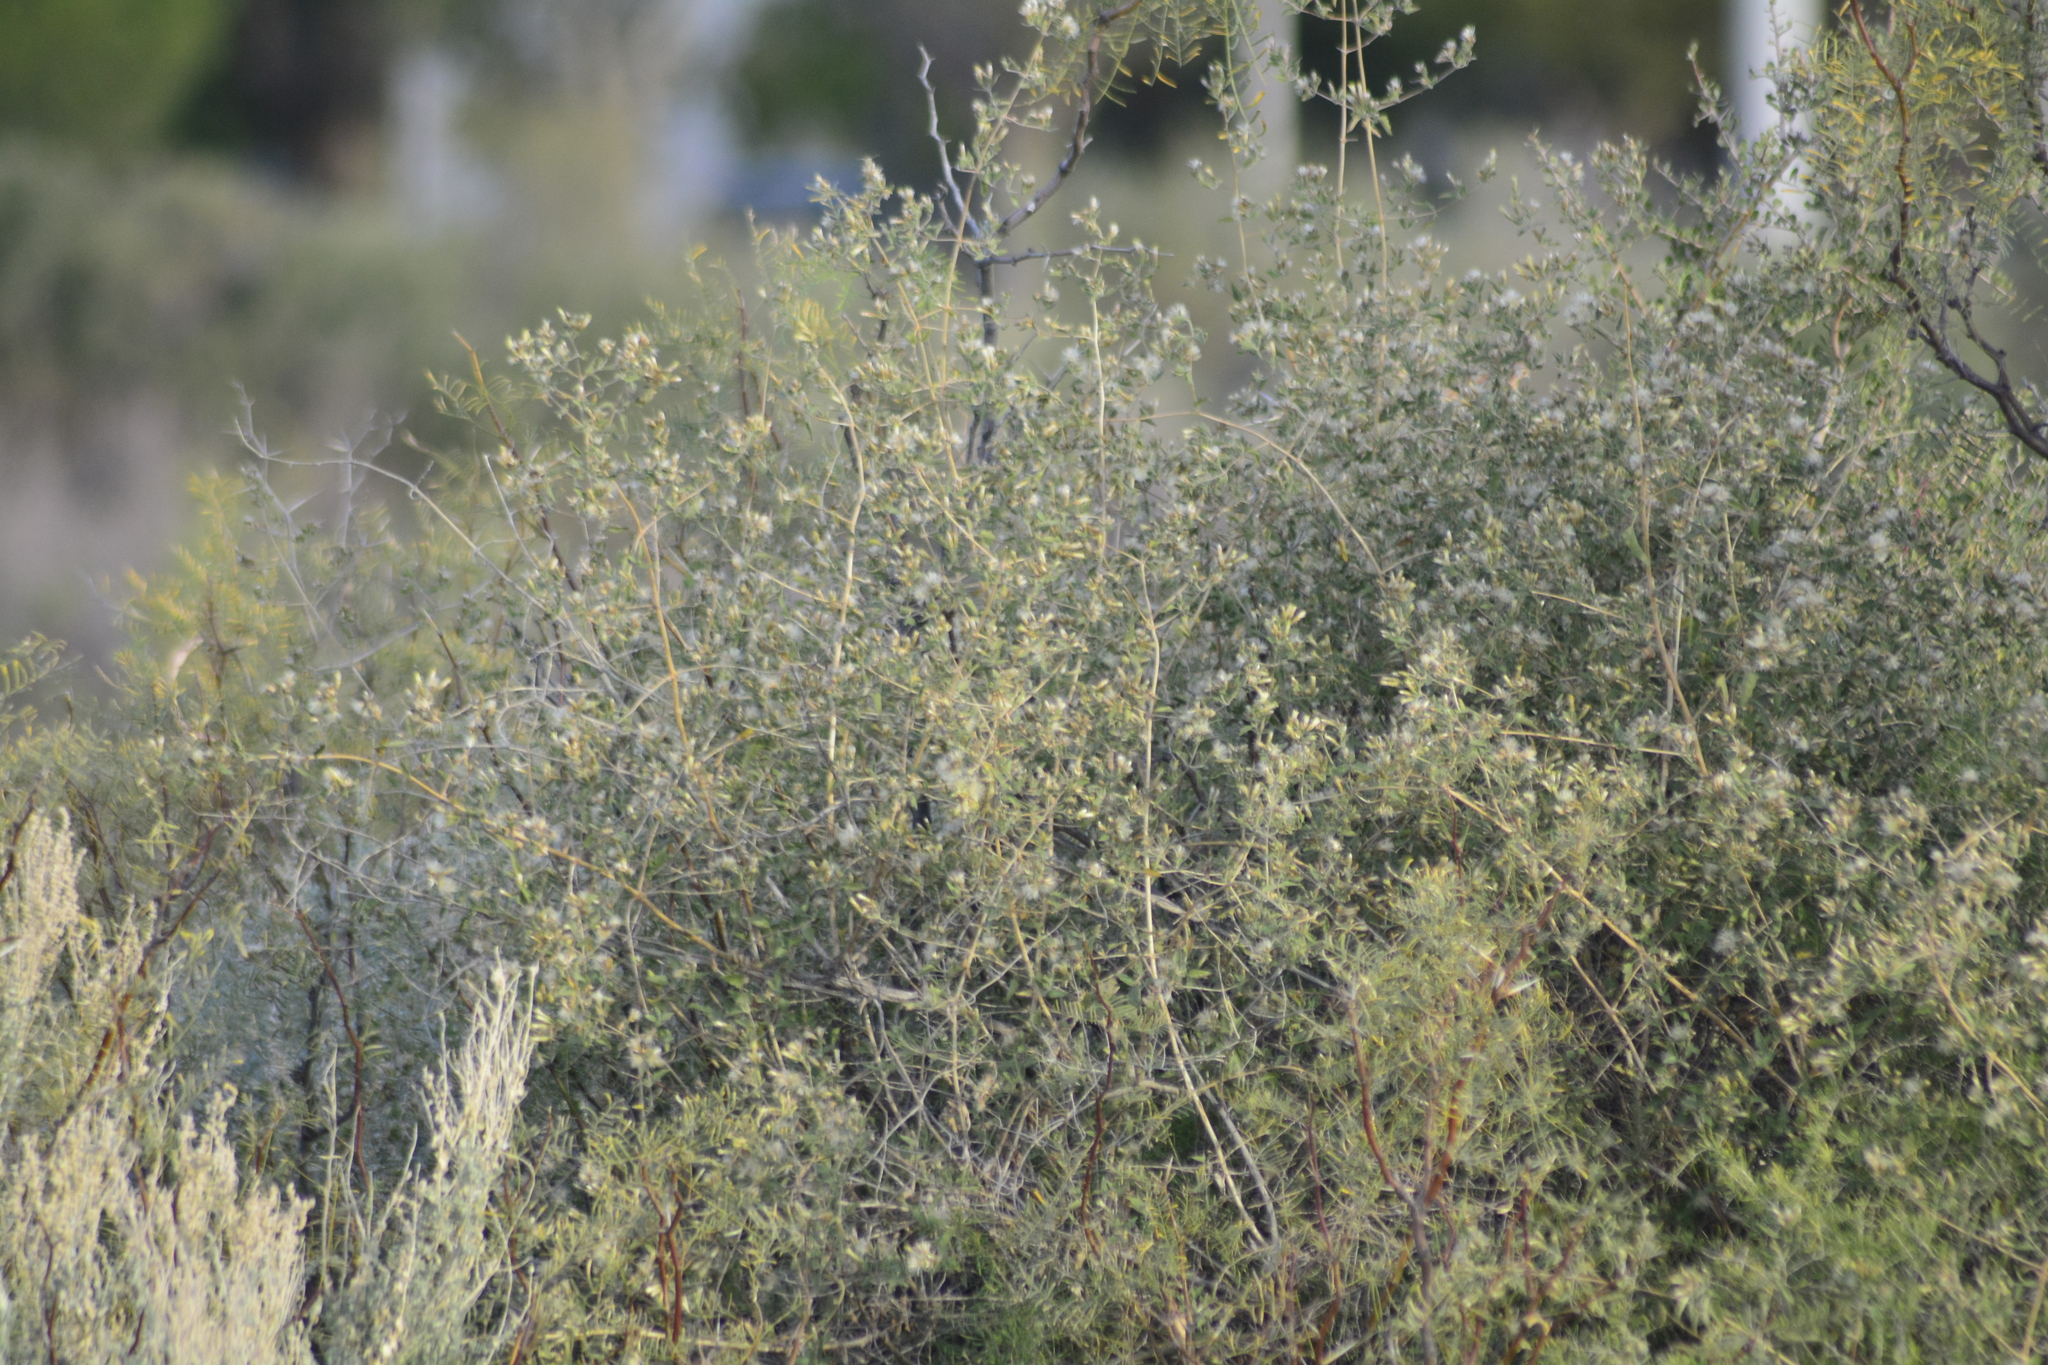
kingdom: Plantae
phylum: Tracheophyta
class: Magnoliopsida
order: Asterales
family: Asteraceae
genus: Austrobrickellia
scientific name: Austrobrickellia patens
